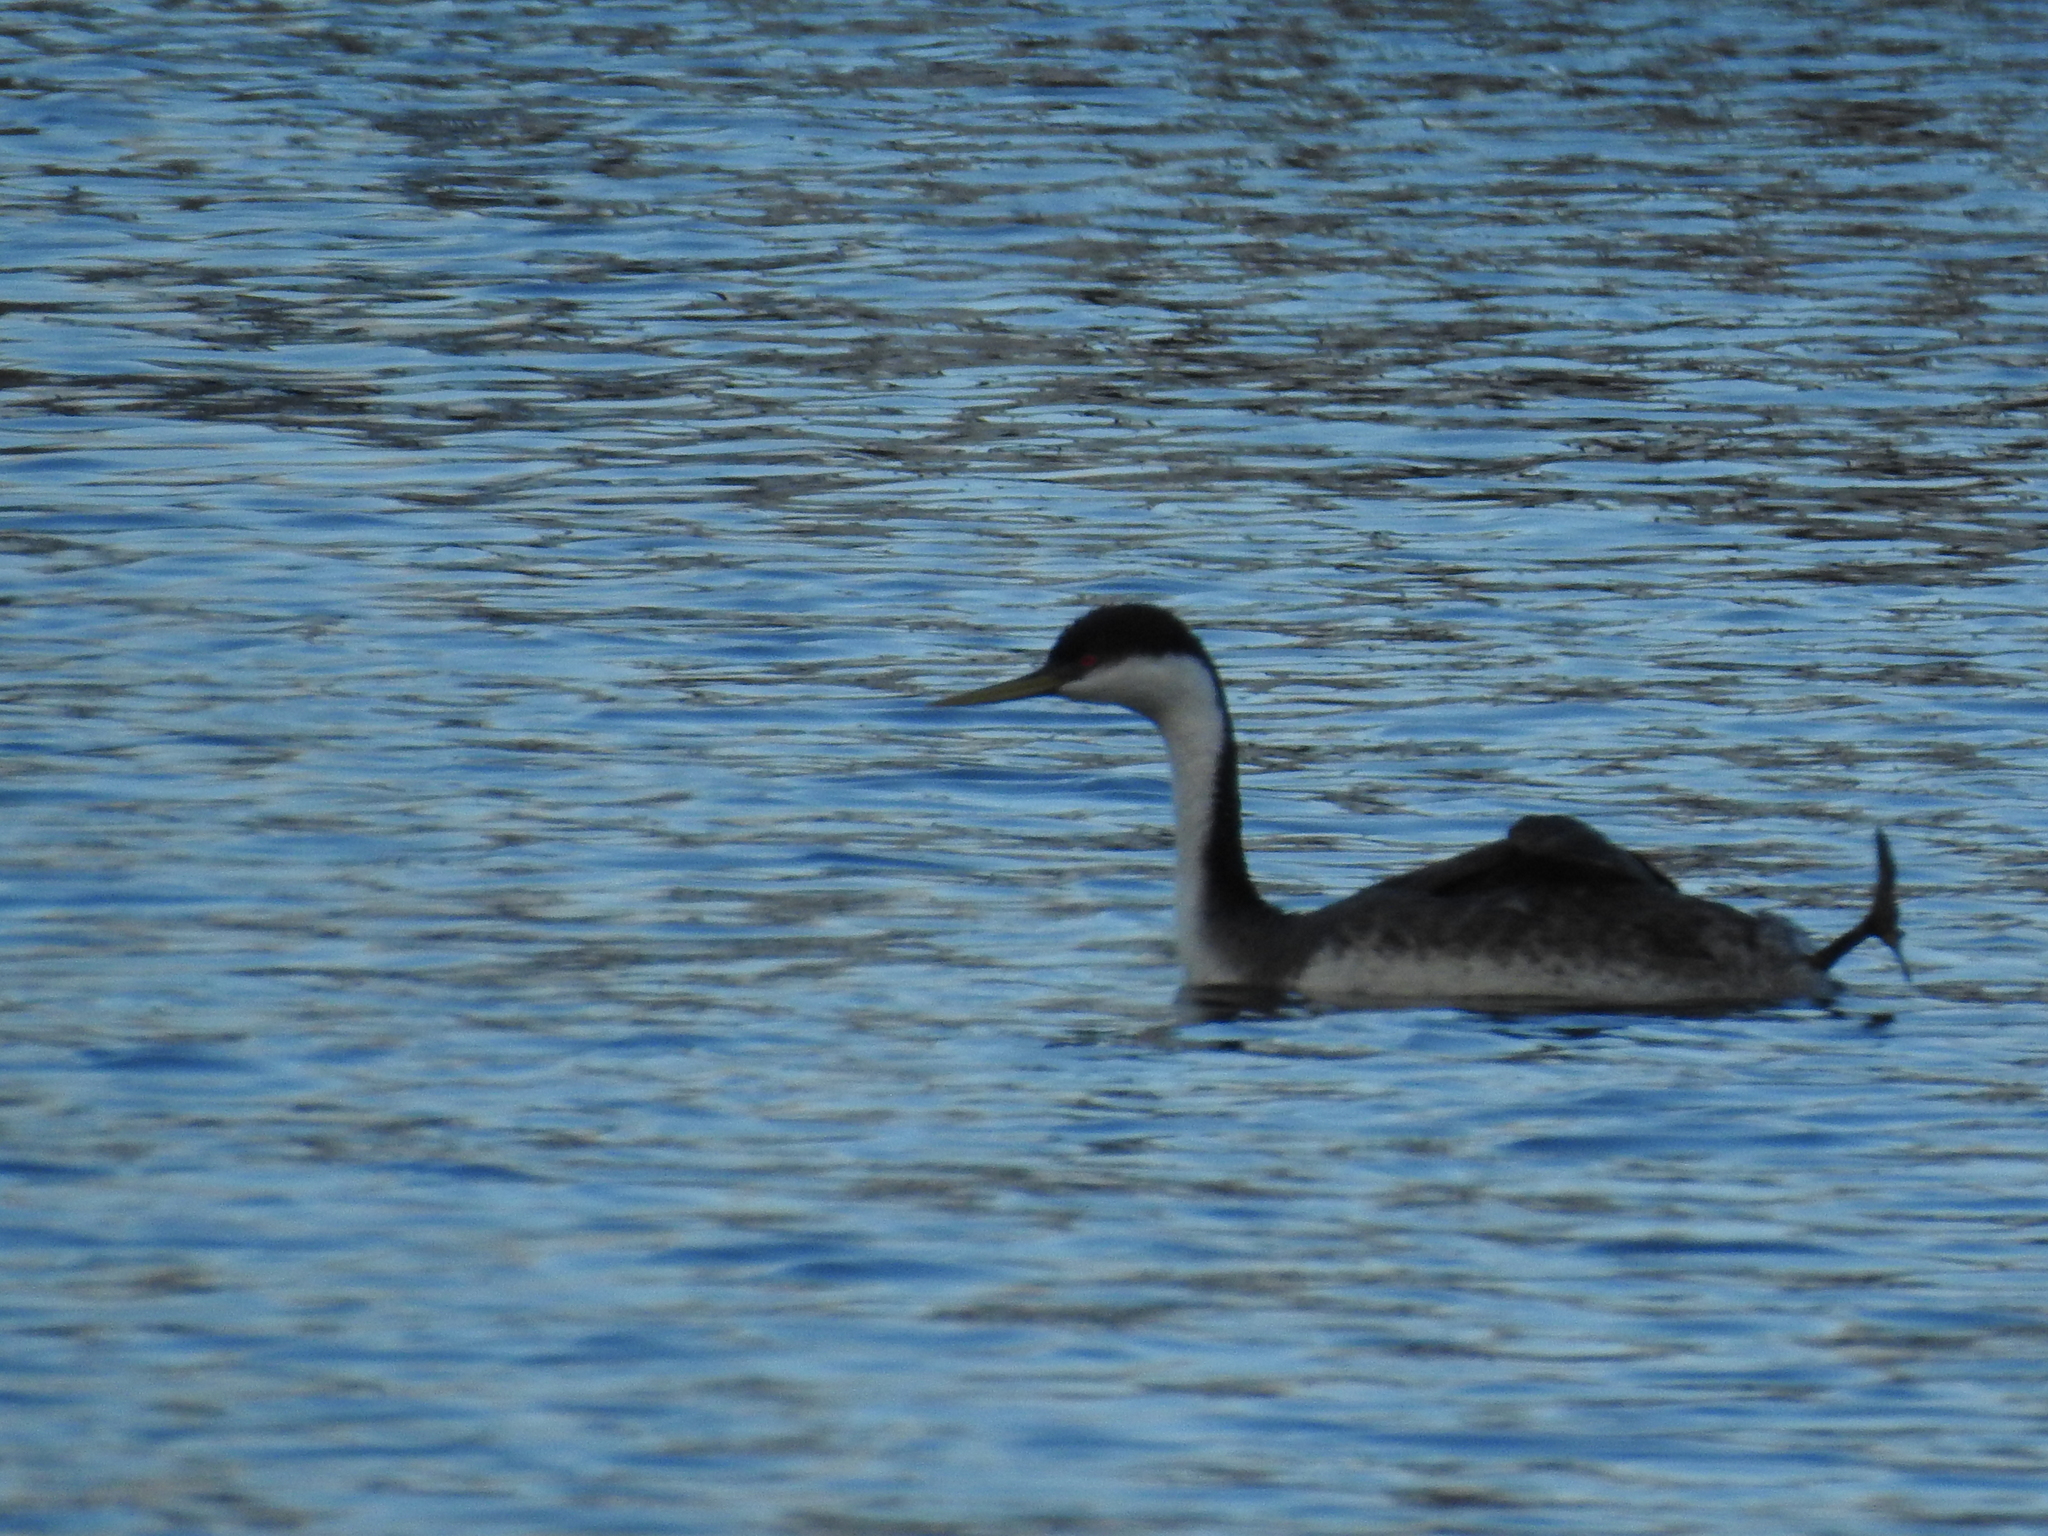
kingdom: Animalia
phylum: Chordata
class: Aves
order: Podicipediformes
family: Podicipedidae
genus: Aechmophorus
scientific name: Aechmophorus occidentalis
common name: Western grebe
